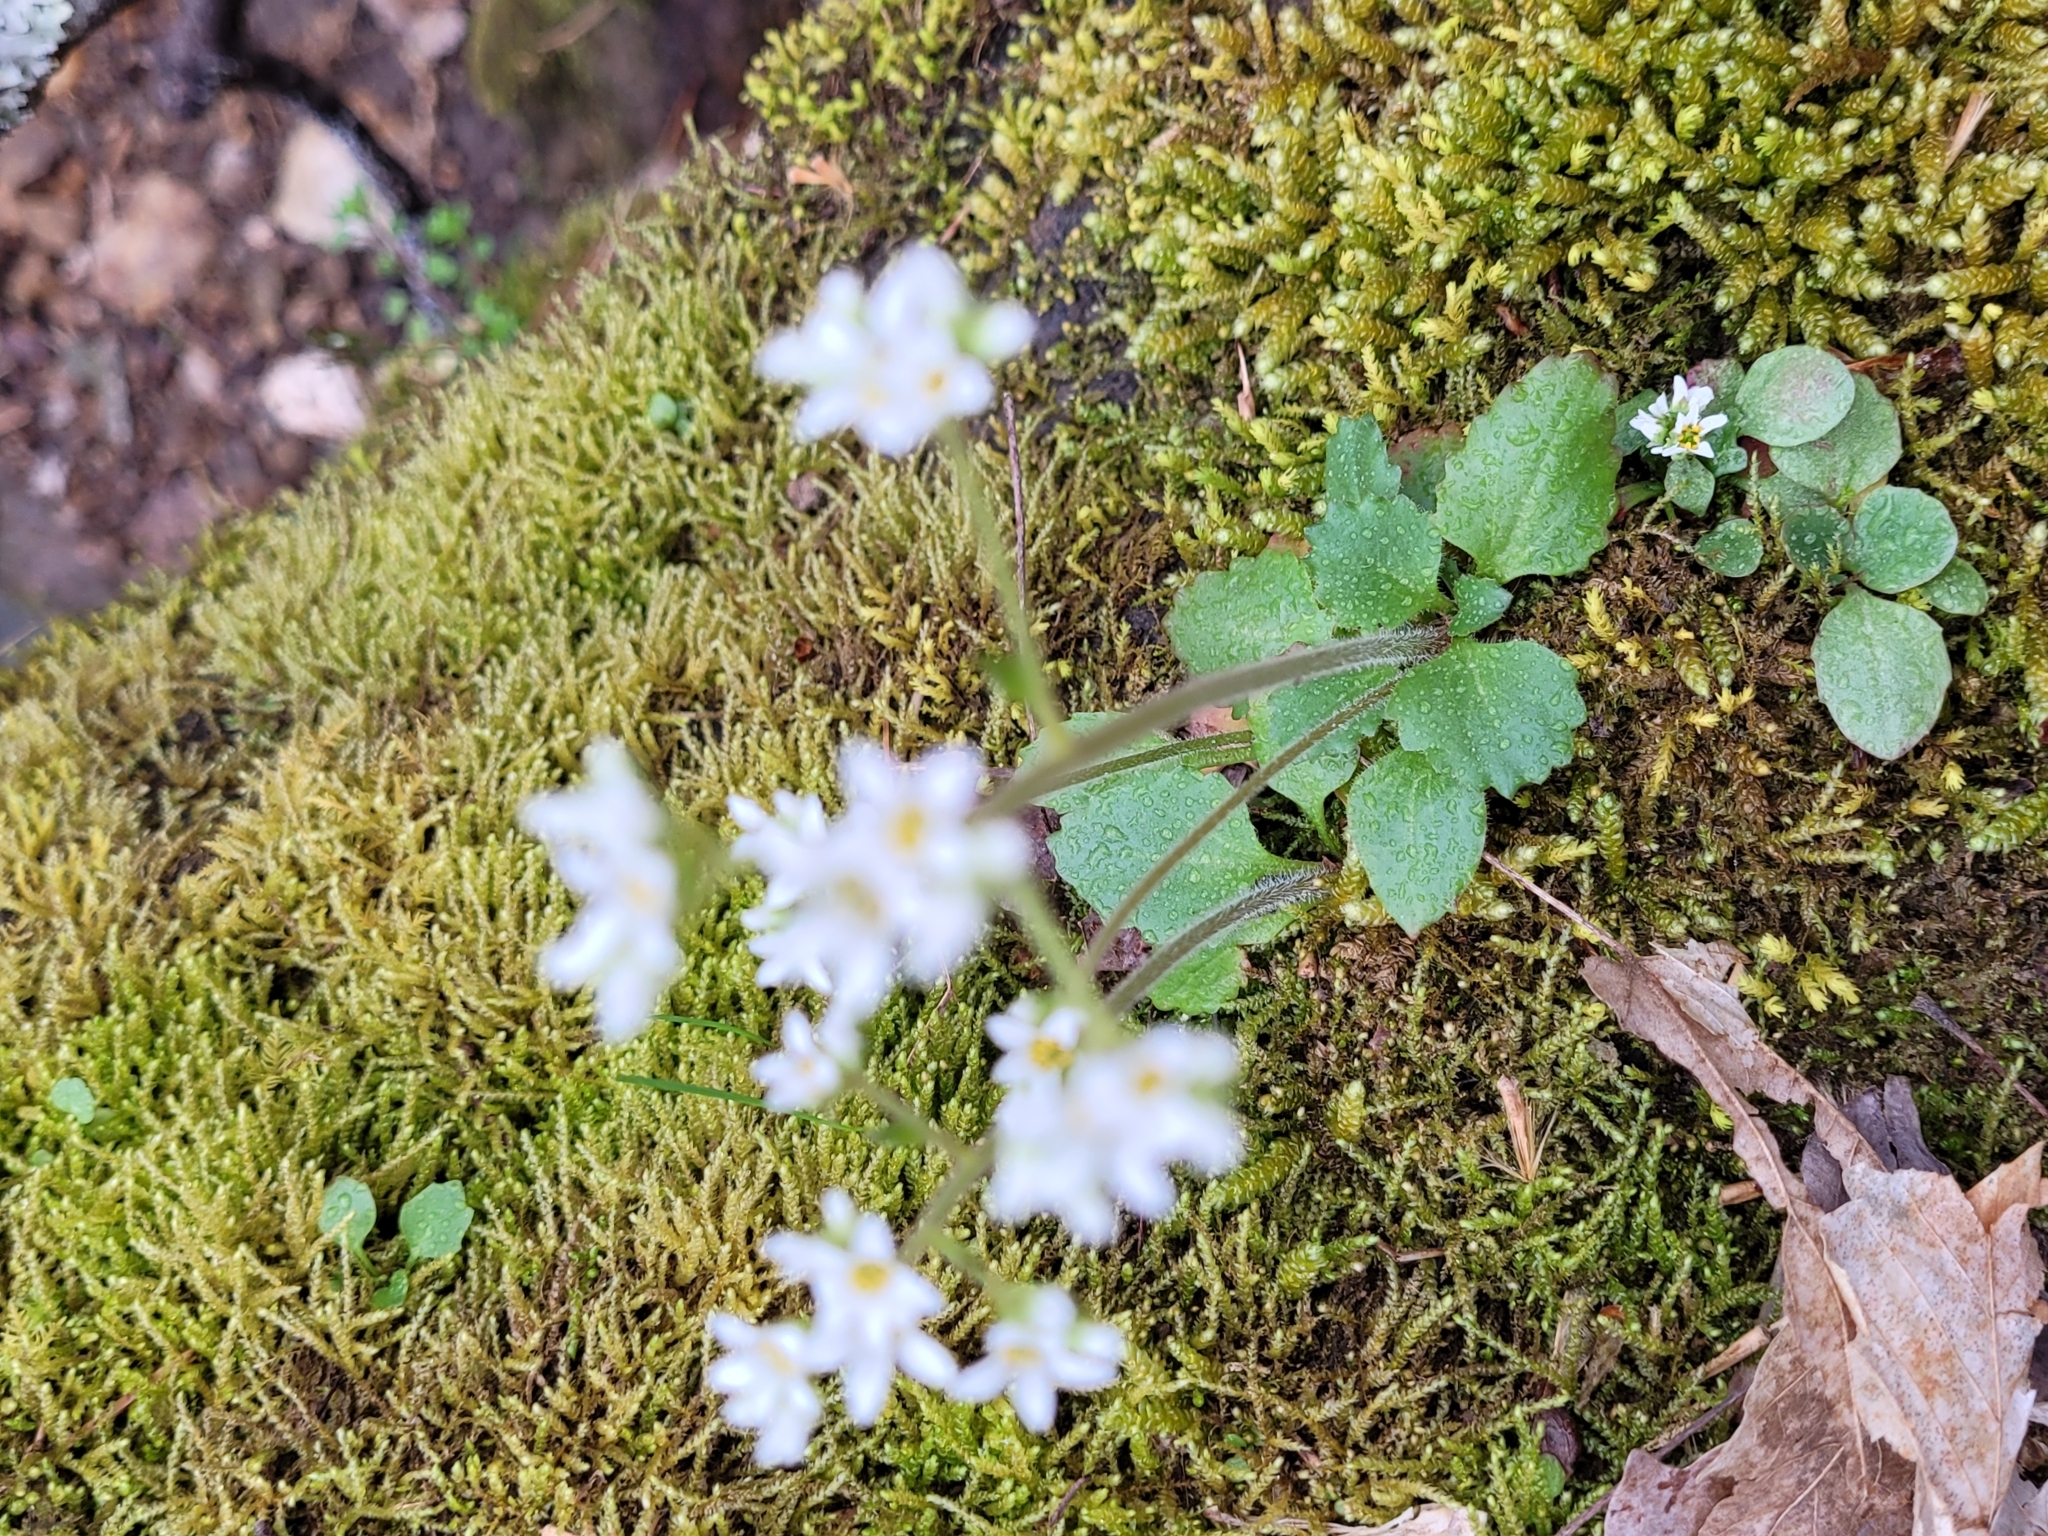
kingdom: Plantae
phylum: Tracheophyta
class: Magnoliopsida
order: Saxifragales
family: Saxifragaceae
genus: Micranthes
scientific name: Micranthes virginiensis
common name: Early saxifrage
